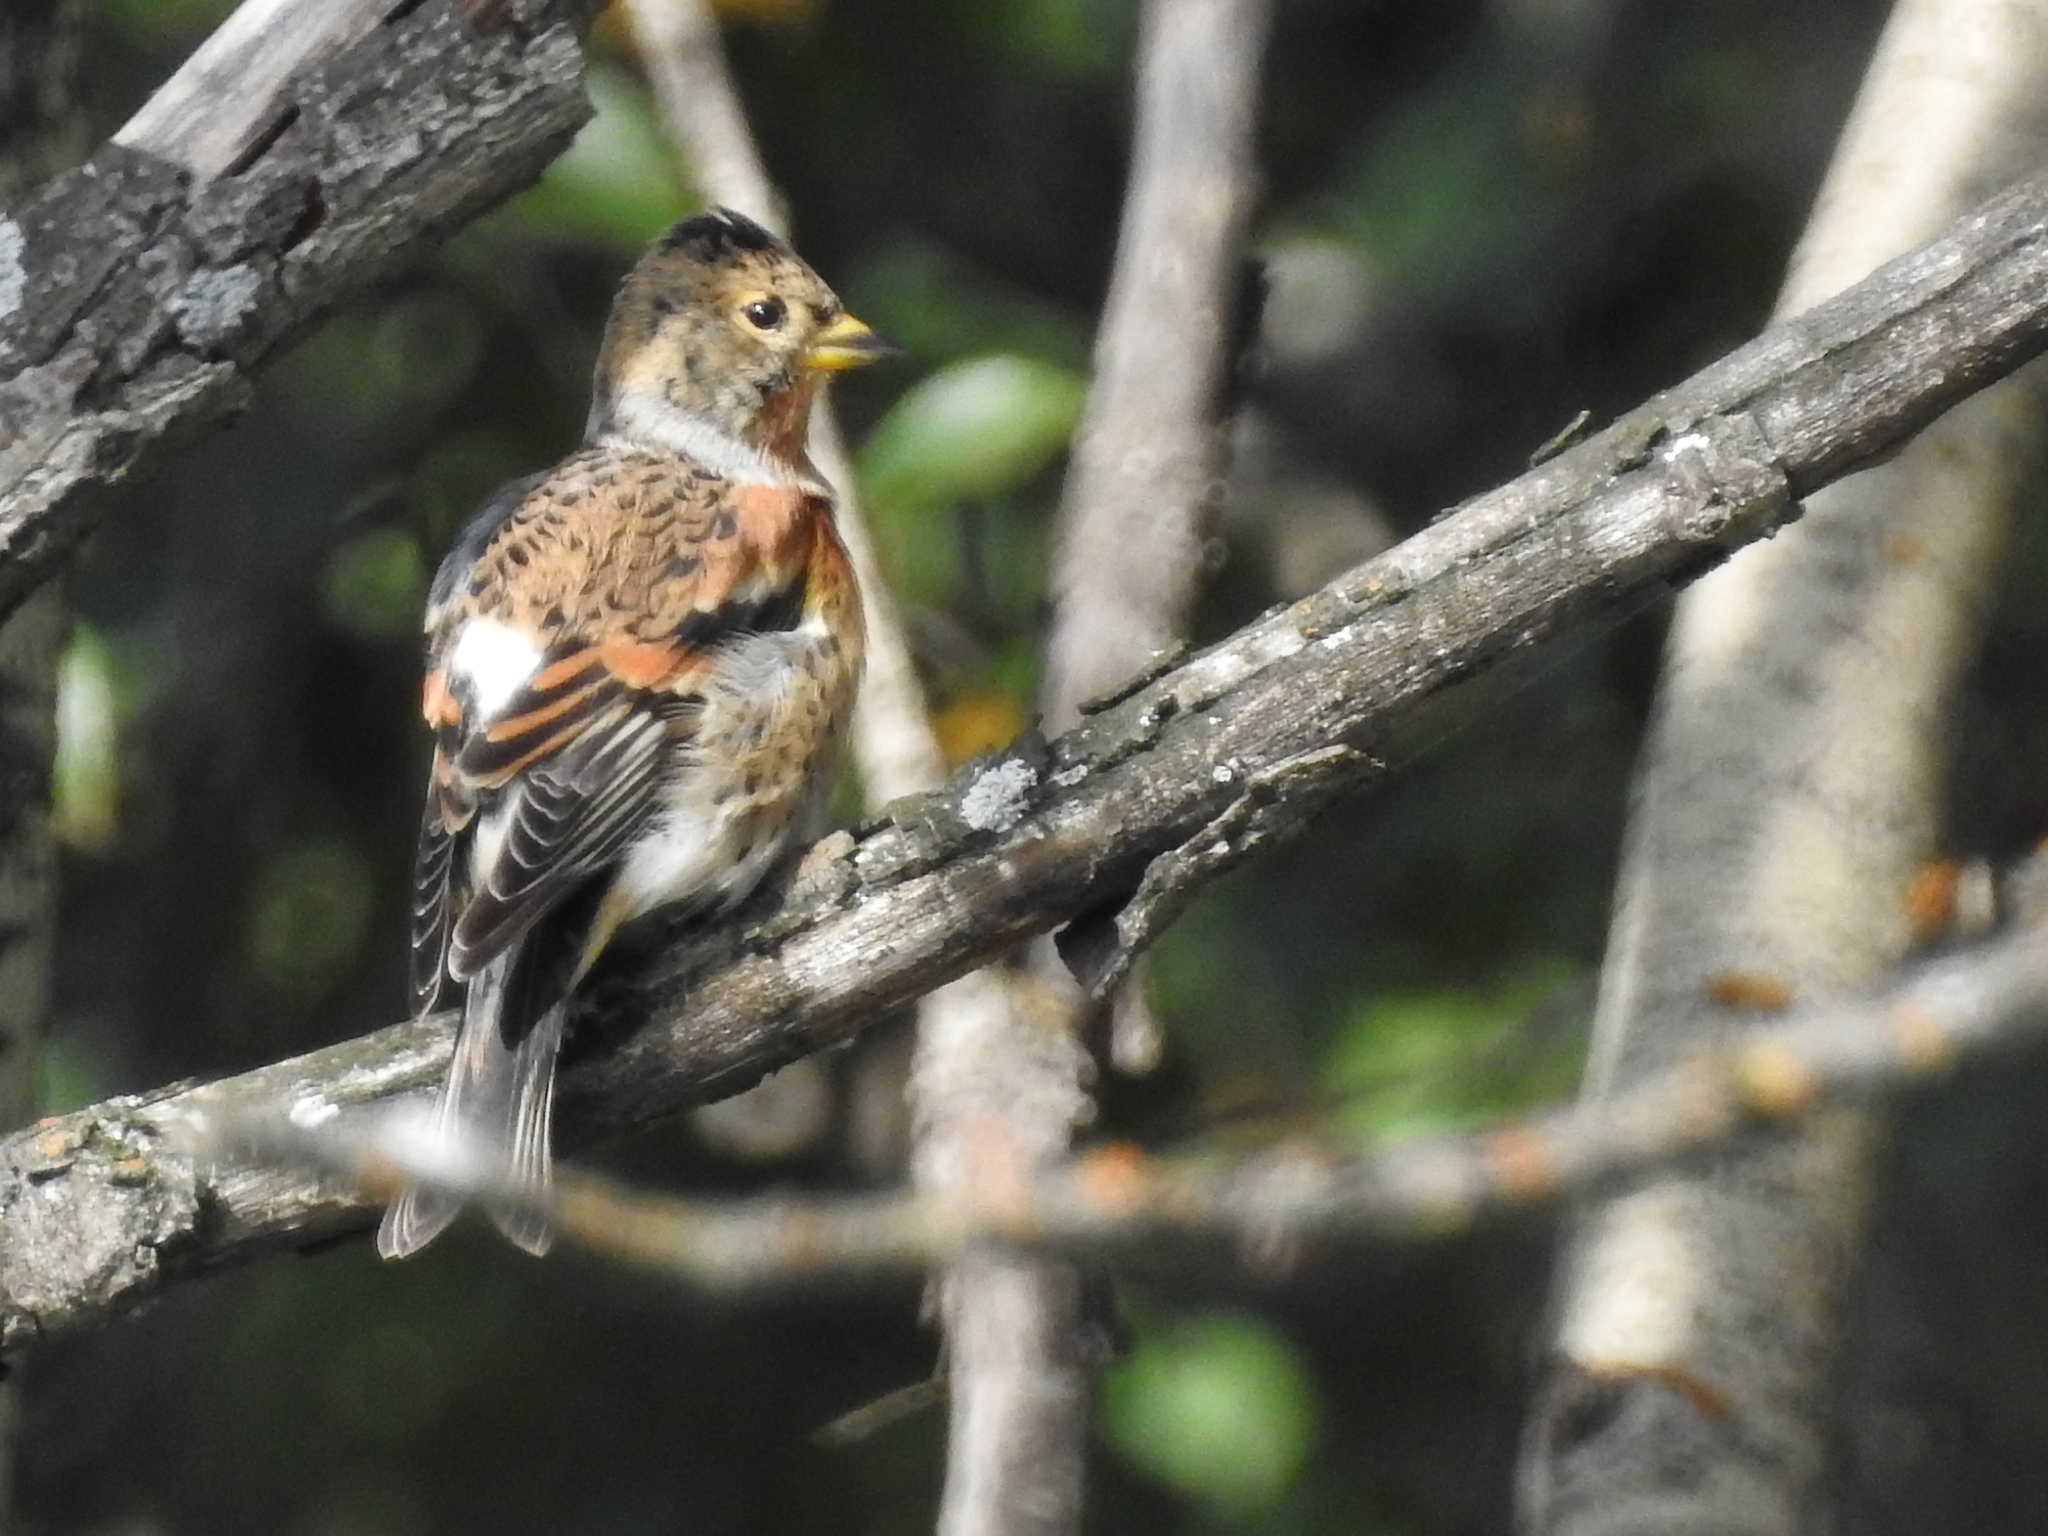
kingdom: Animalia
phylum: Chordata
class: Aves
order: Passeriformes
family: Fringillidae
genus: Fringilla
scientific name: Fringilla montifringilla
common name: Brambling
